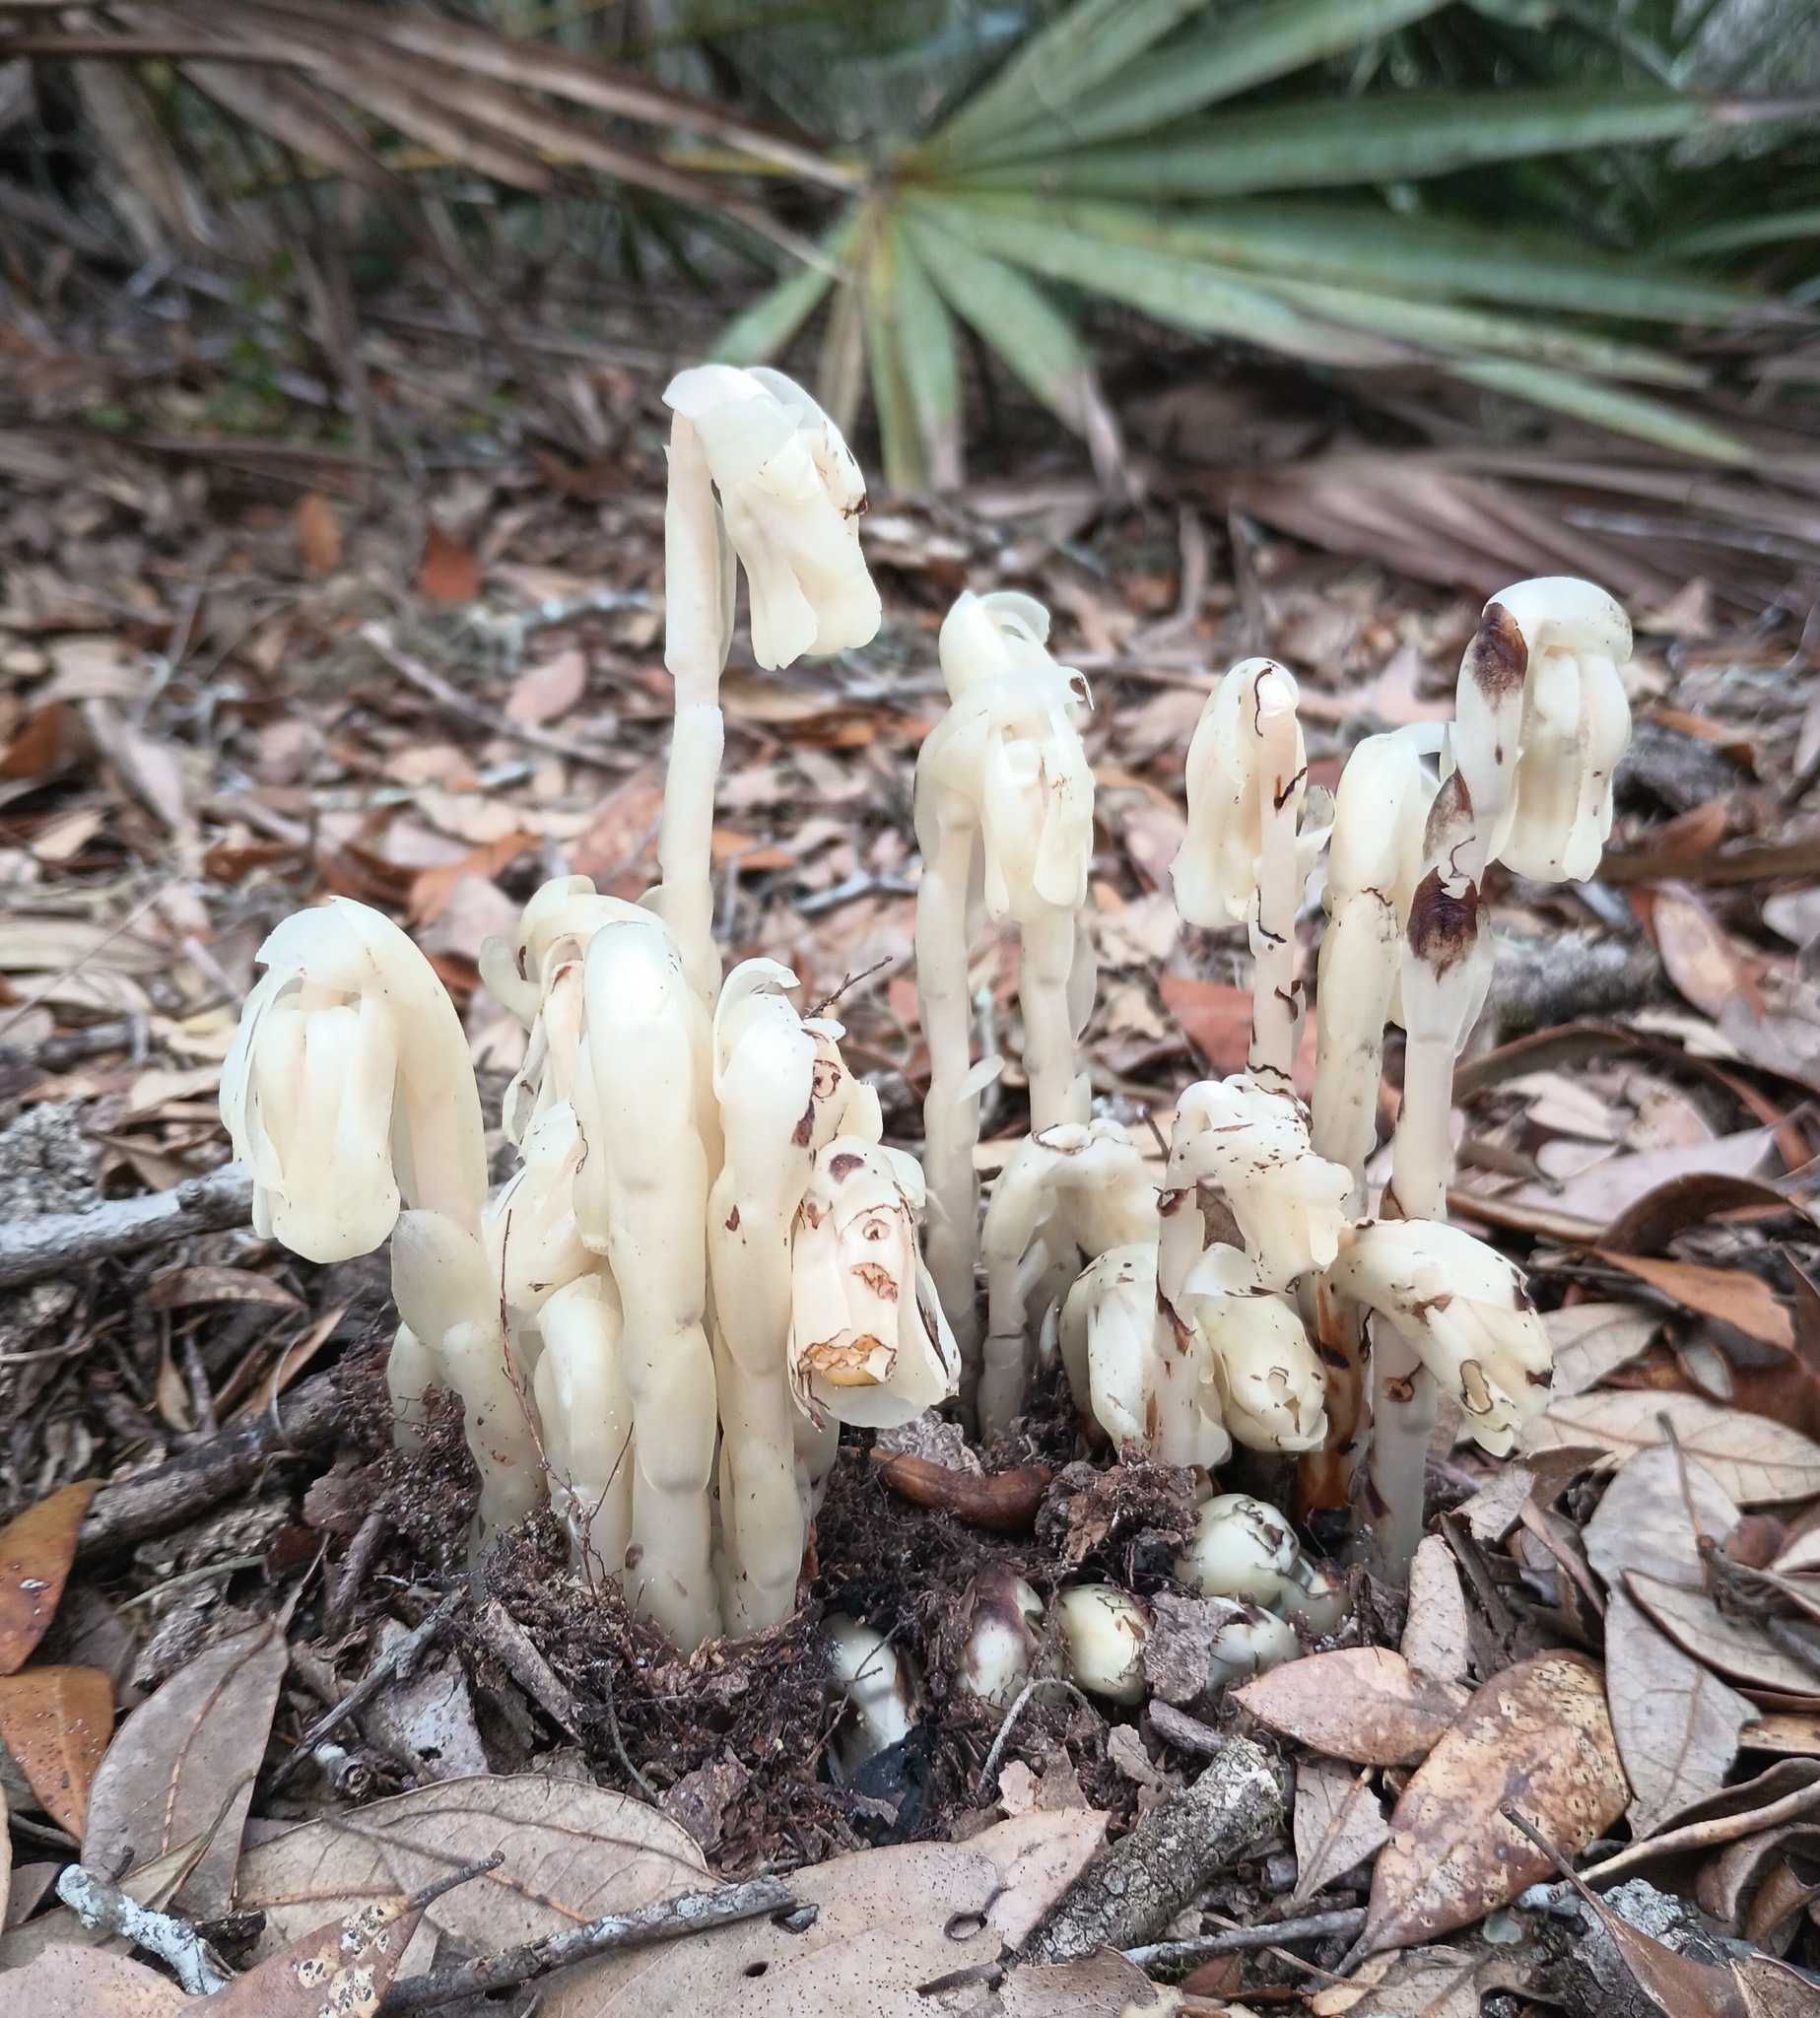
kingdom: Plantae
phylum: Tracheophyta
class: Magnoliopsida
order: Ericales
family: Ericaceae
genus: Monotropa
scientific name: Monotropa uniflora
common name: Convulsion root
